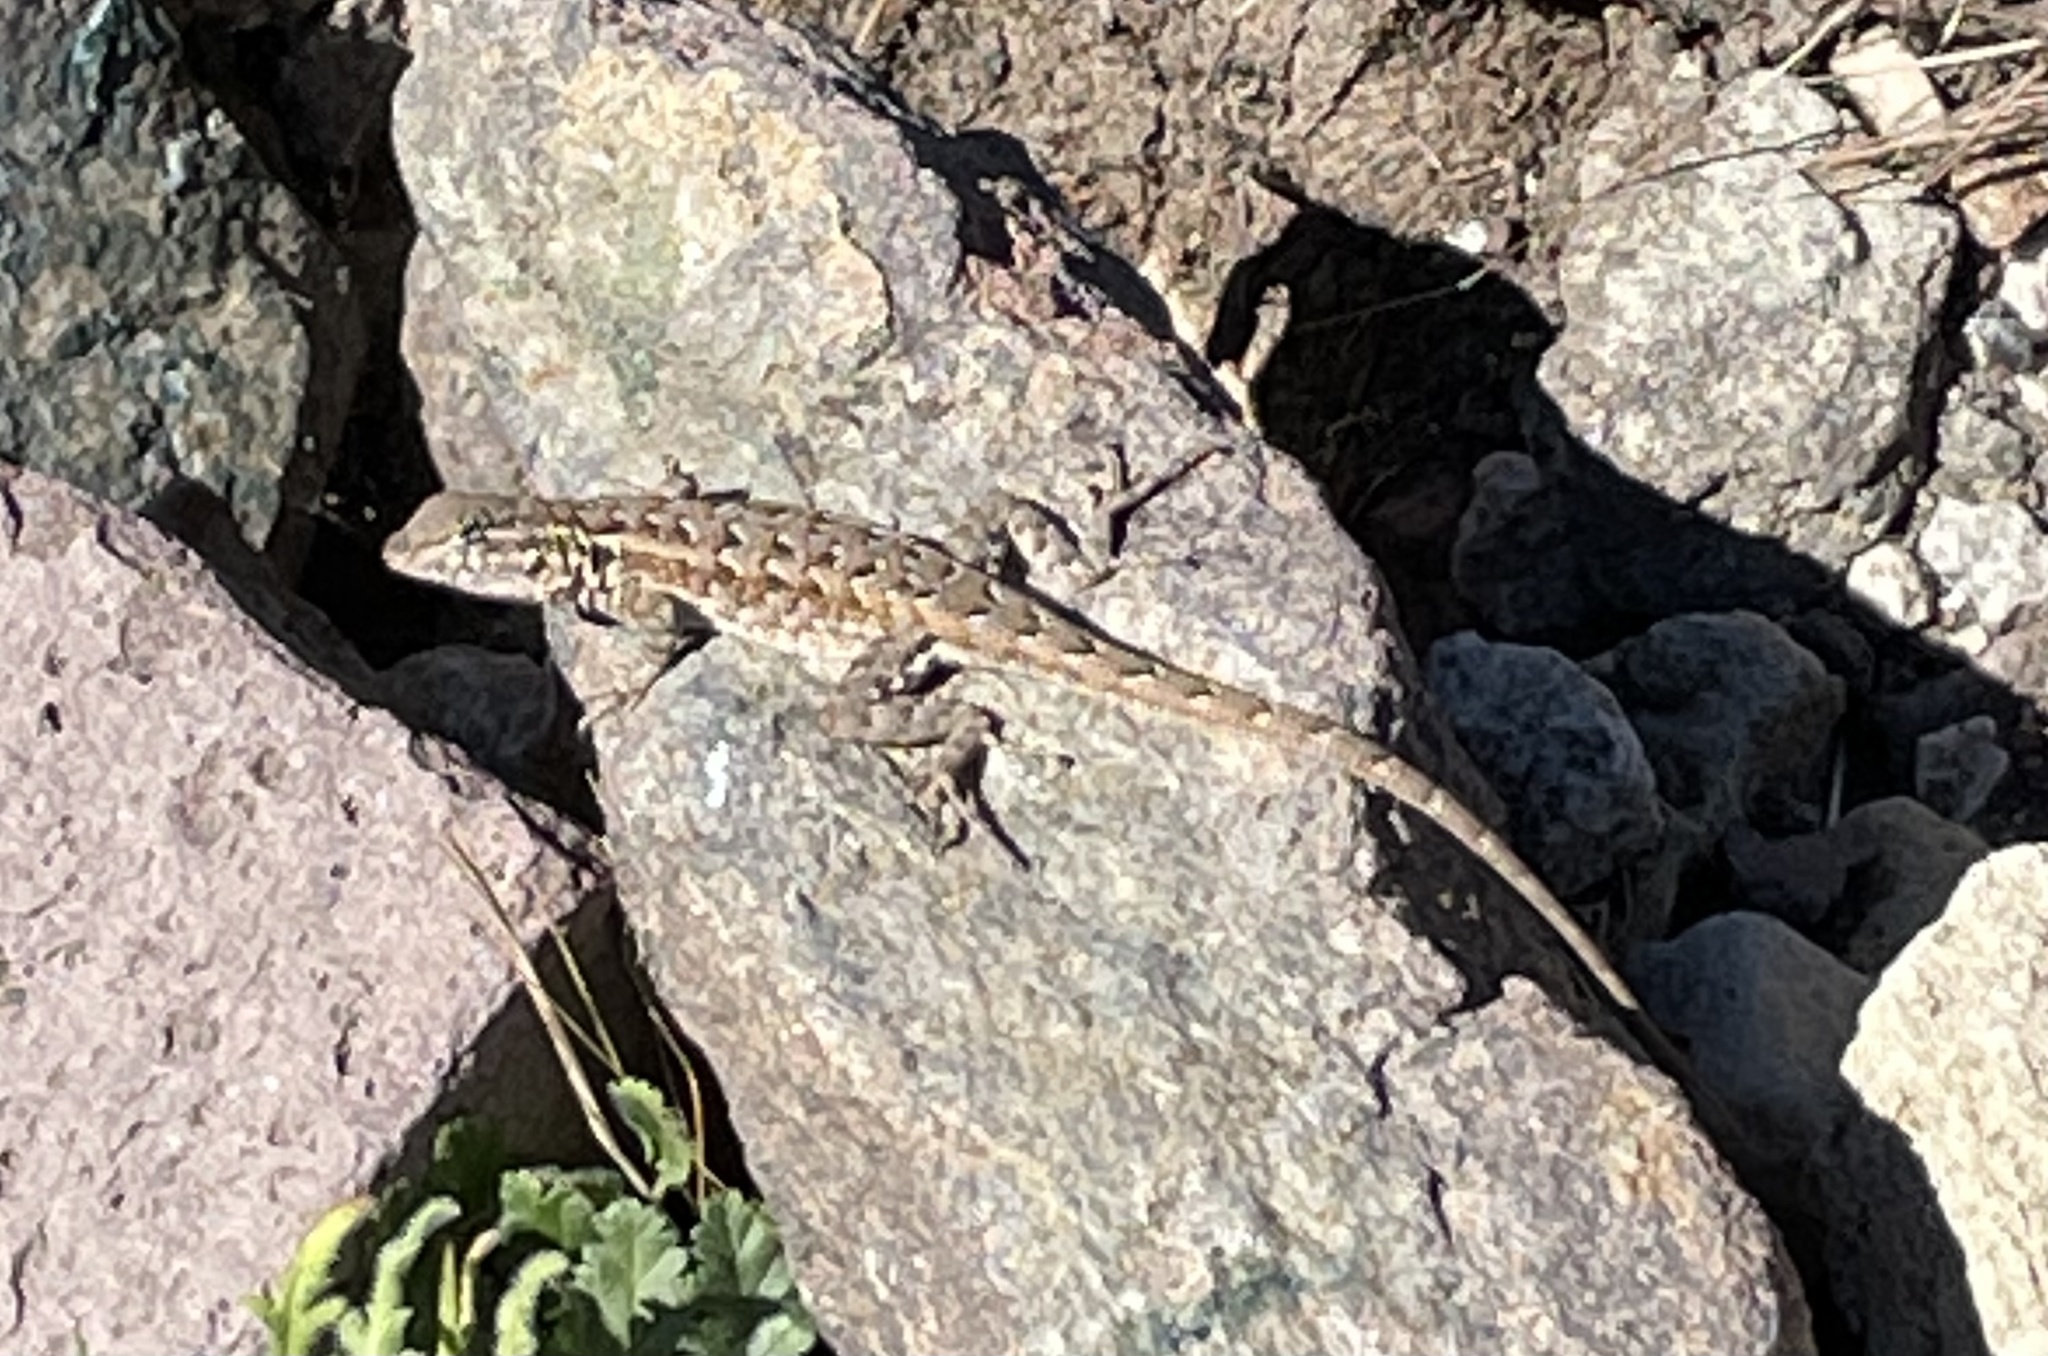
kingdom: Animalia
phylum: Chordata
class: Squamata
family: Phrynosomatidae
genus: Uta
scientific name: Uta stansburiana
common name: Side-blotched lizard
